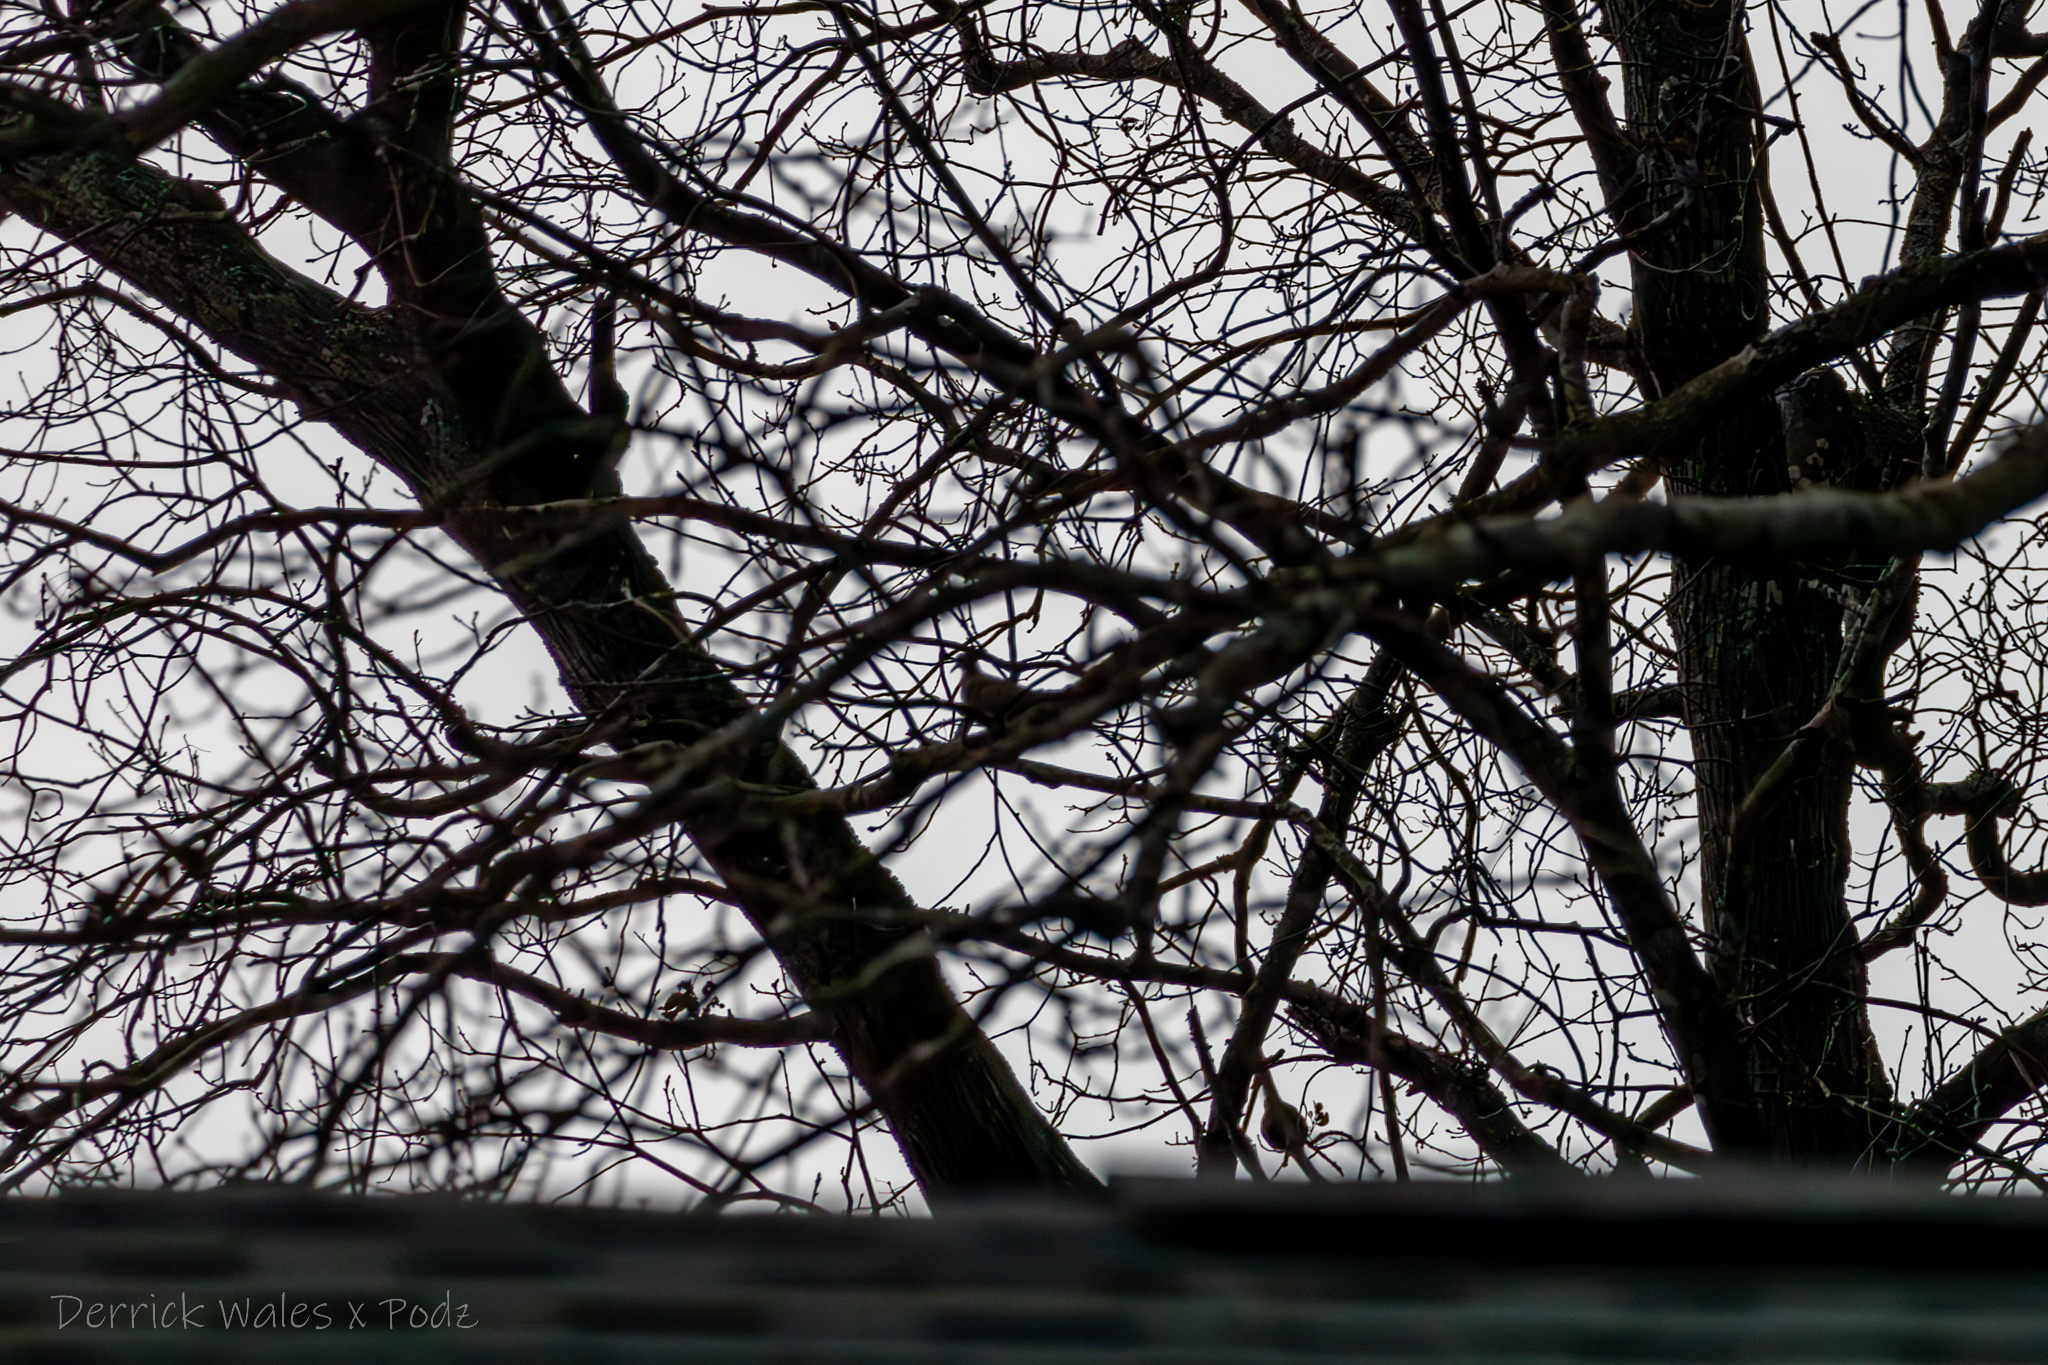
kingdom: Animalia
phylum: Chordata
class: Aves
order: Columbiformes
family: Columbidae
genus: Zenaida
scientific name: Zenaida macroura
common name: Mourning dove
